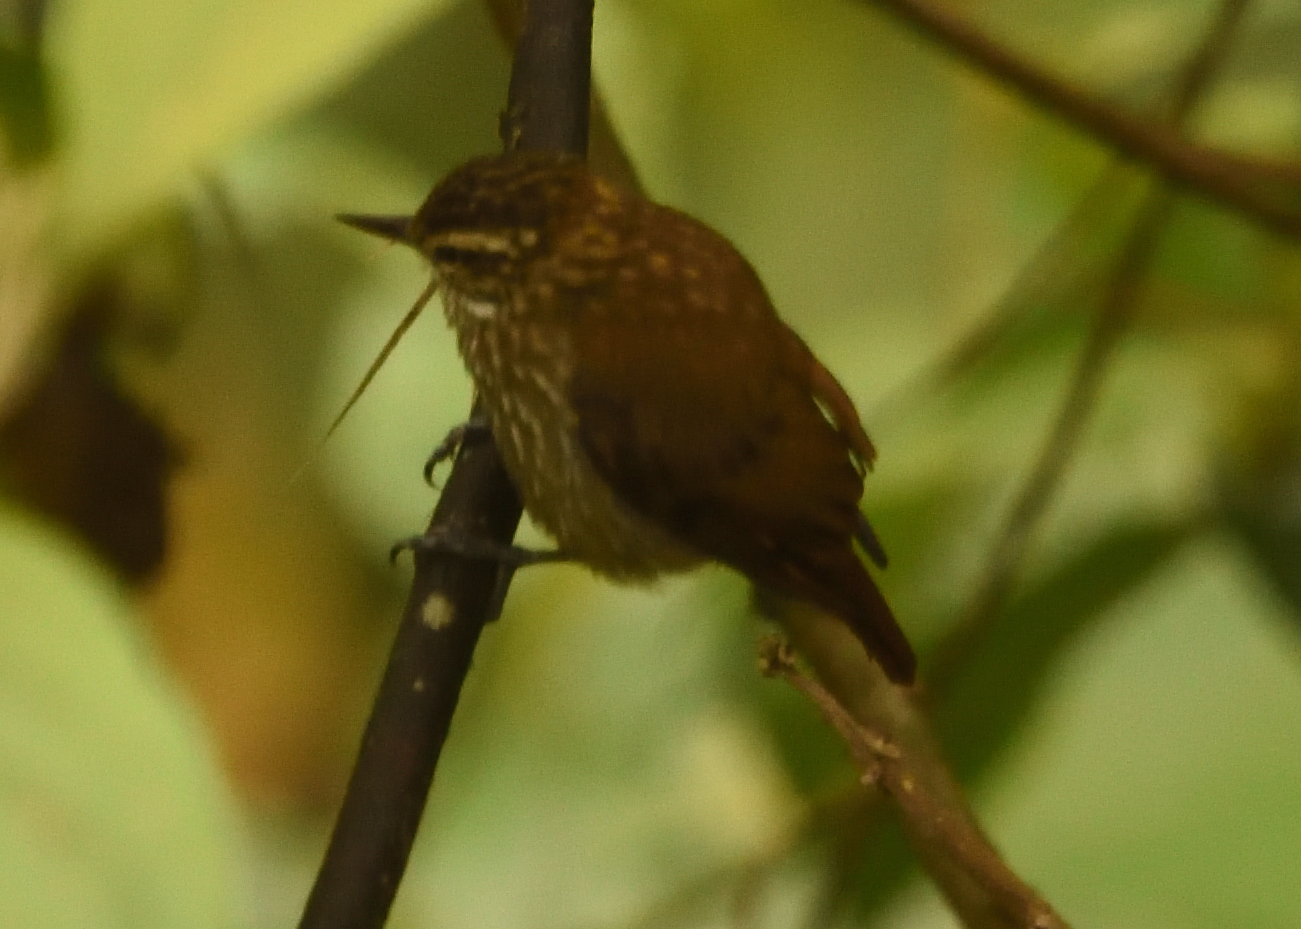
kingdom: Animalia
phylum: Chordata
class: Aves
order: Passeriformes
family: Furnariidae
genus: Xenops
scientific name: Xenops rutilans
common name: Streaked xenops
